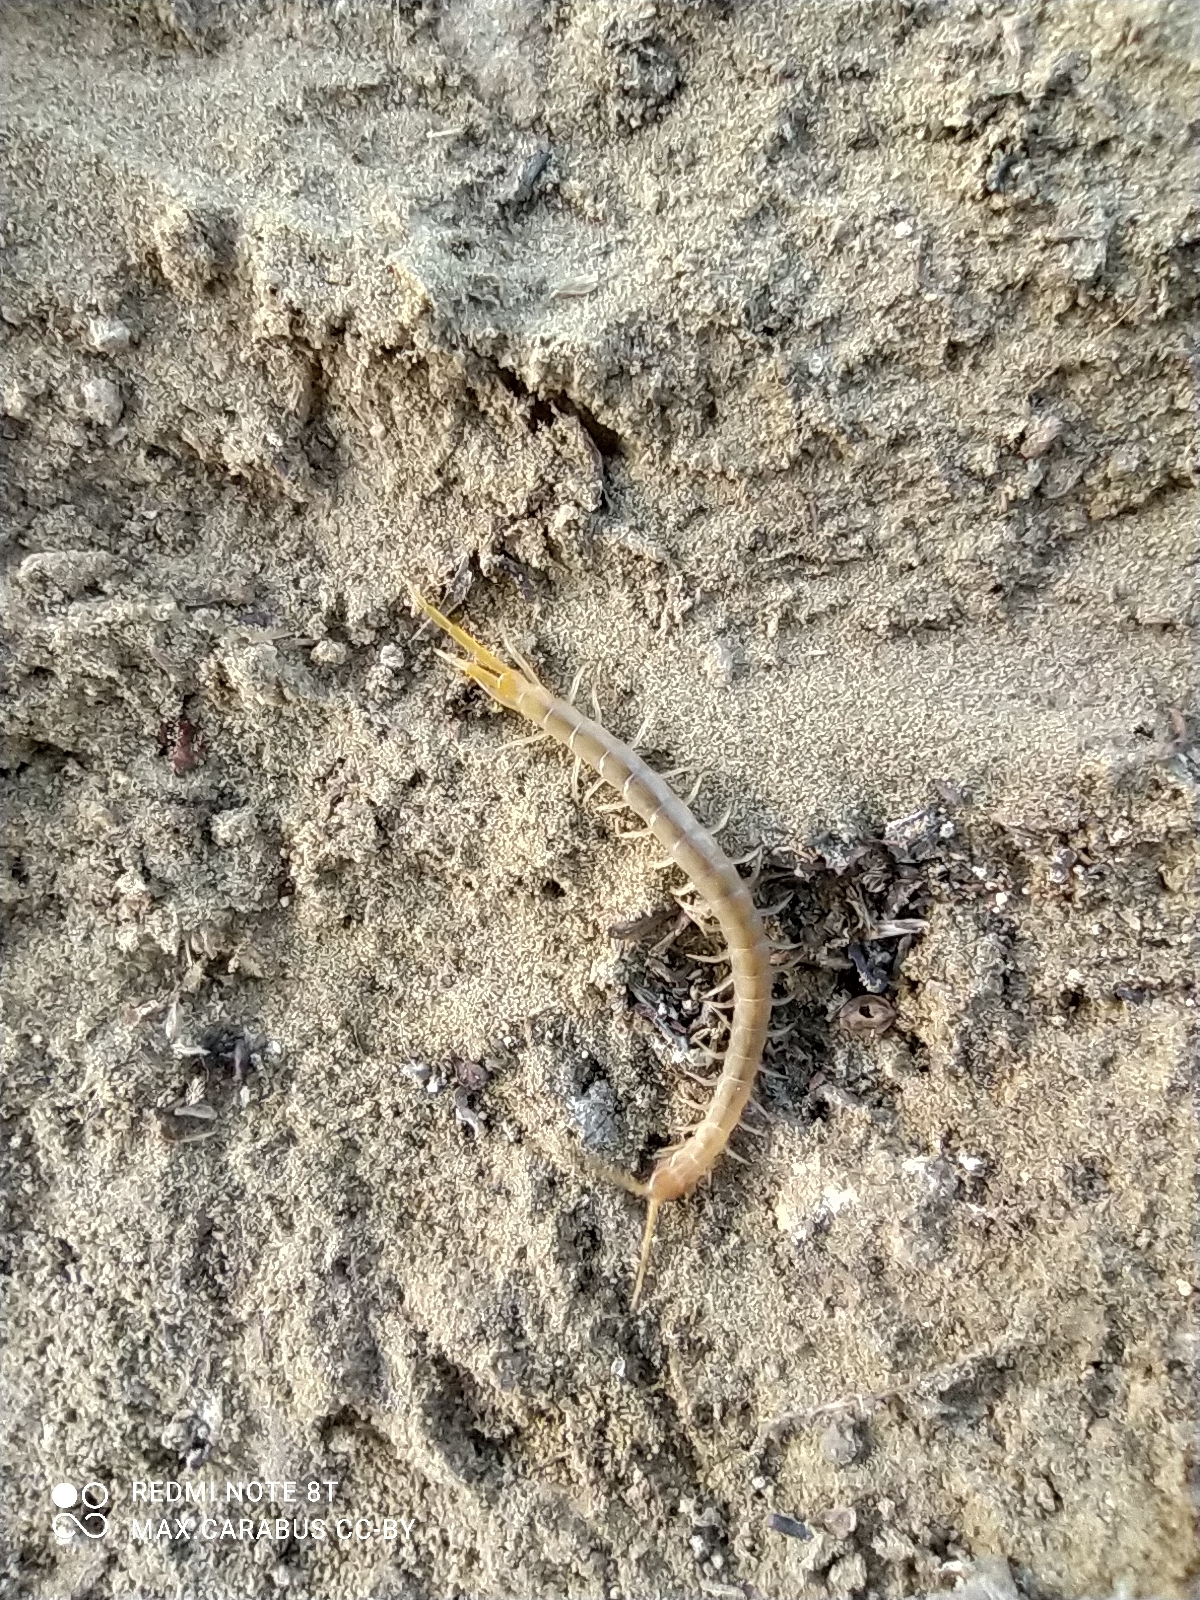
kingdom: Animalia
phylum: Arthropoda
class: Chilopoda
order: Scolopendromorpha
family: Scolopendridae
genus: Scolopendra
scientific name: Scolopendra canidens
